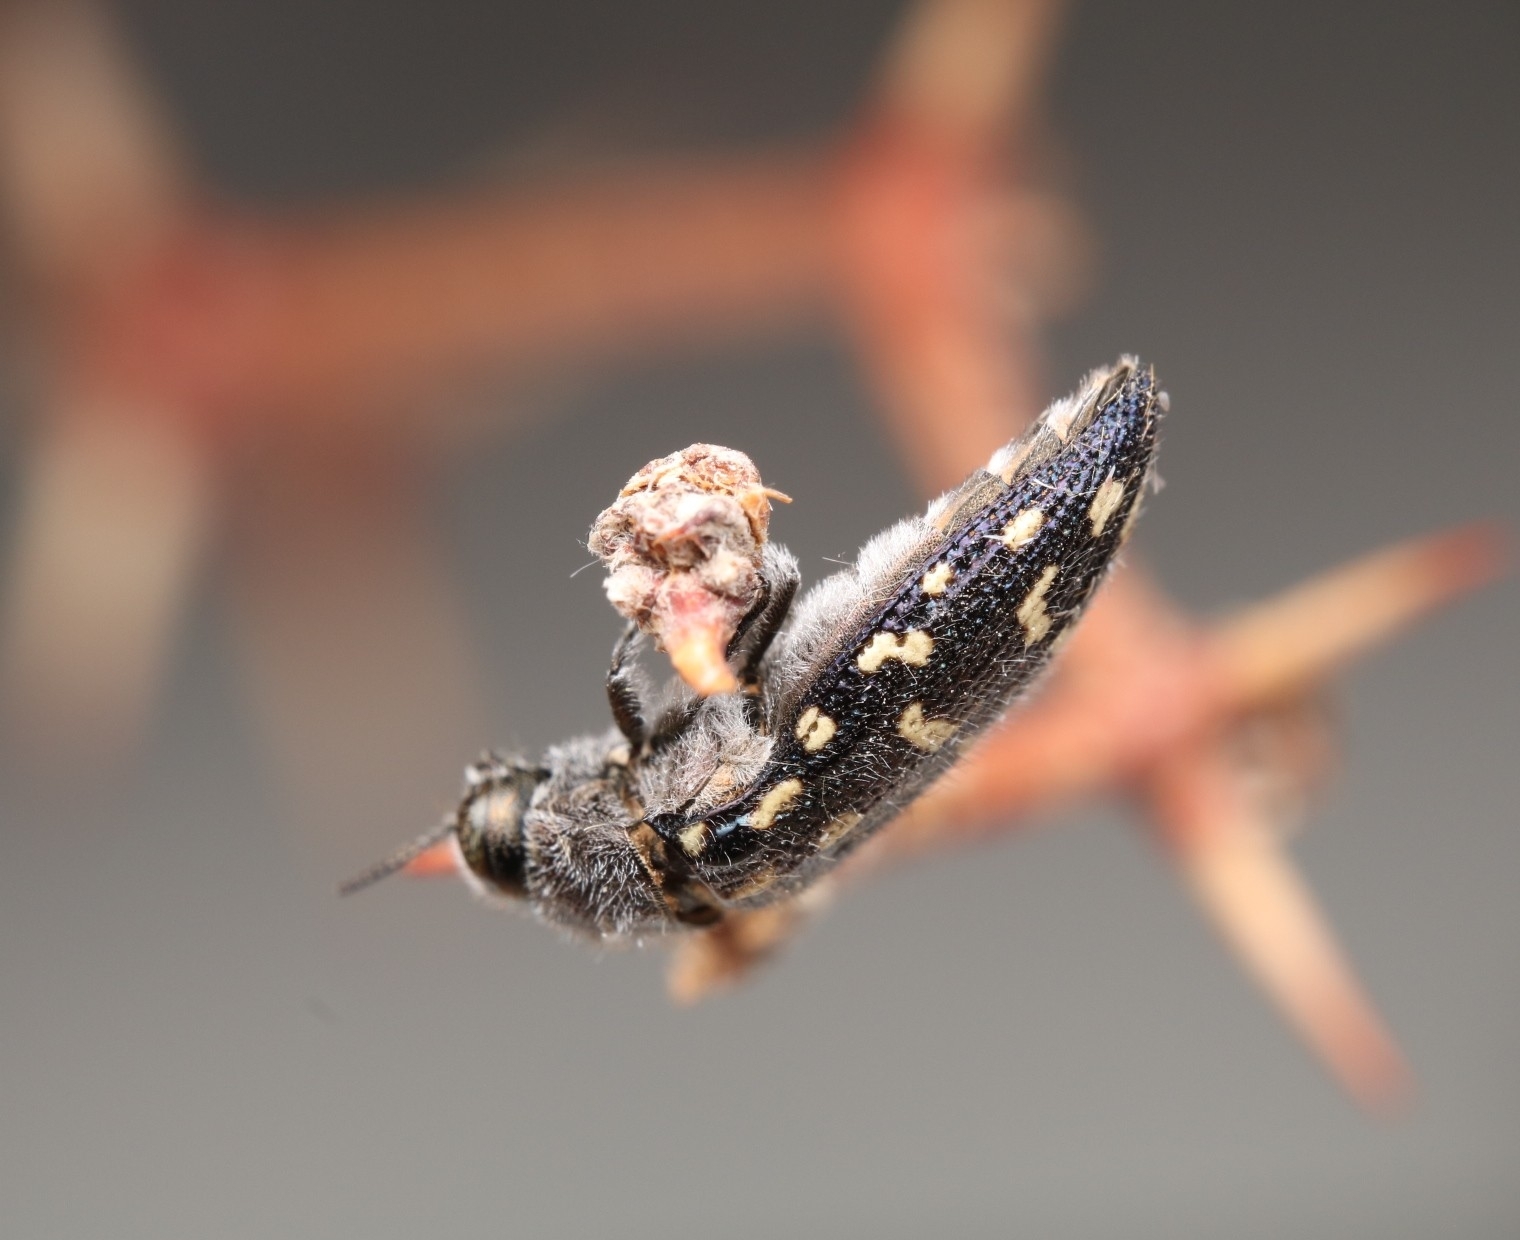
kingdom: Animalia
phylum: Arthropoda
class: Insecta
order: Coleoptera
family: Buprestidae
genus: Acmaeodera
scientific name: Acmaeodera delumbis
